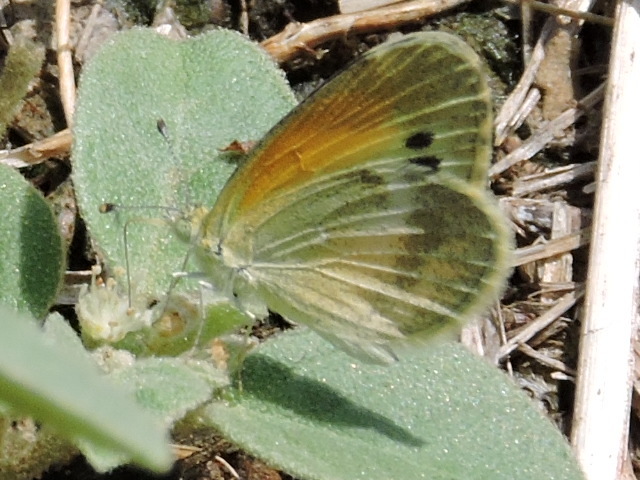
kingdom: Animalia
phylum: Arthropoda
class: Insecta
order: Lepidoptera
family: Pieridae
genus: Nathalis
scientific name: Nathalis iole
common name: Dainty sulphur
